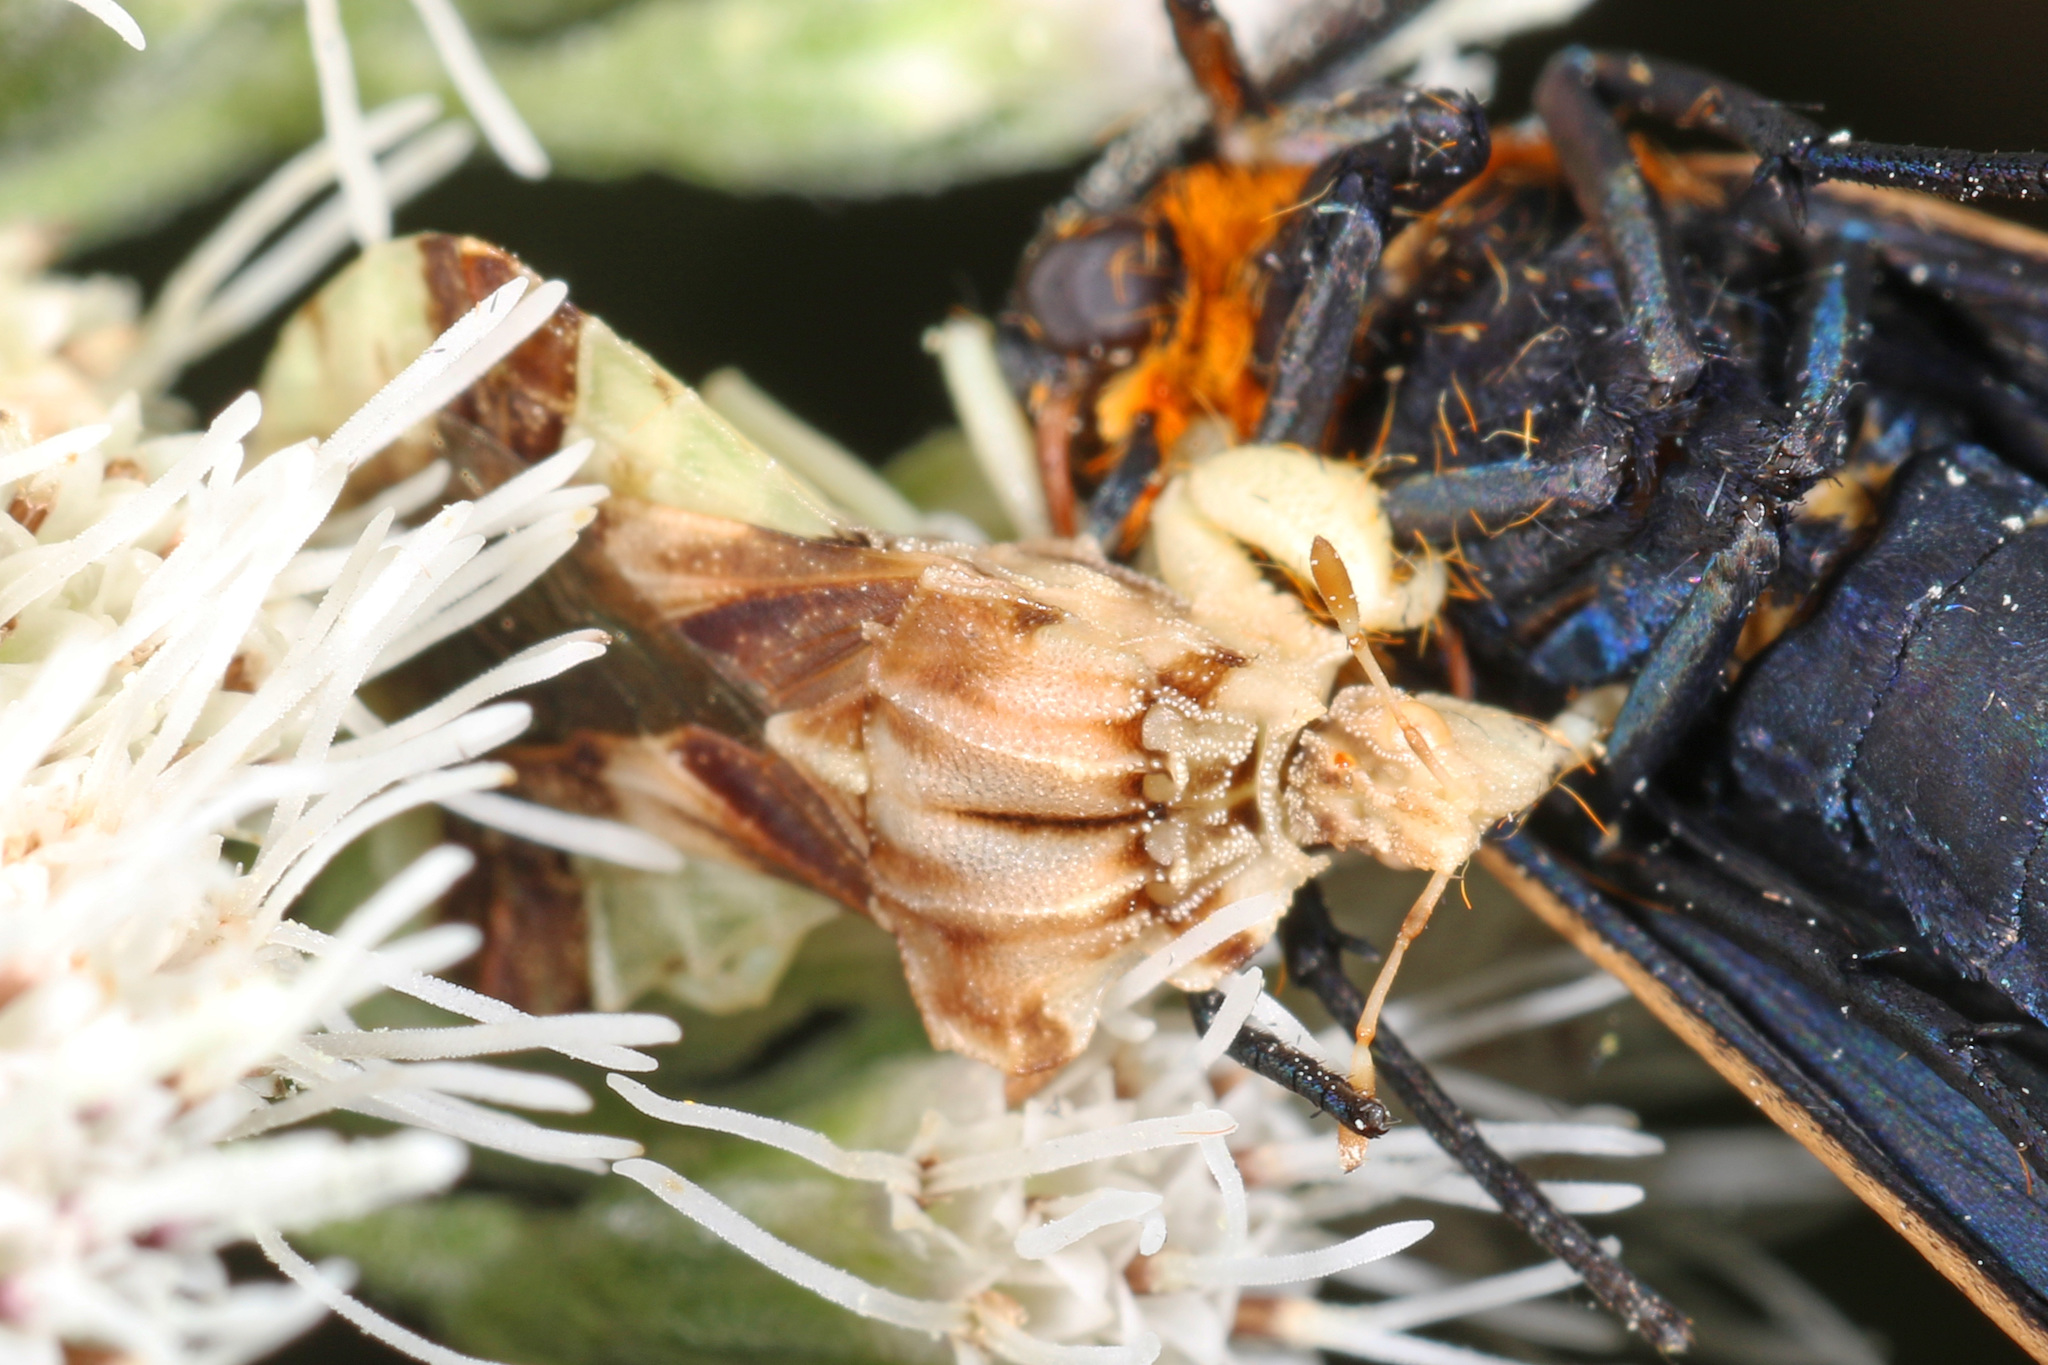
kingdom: Animalia
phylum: Arthropoda
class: Insecta
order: Hemiptera
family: Reduviidae
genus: Phymata
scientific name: Phymata fasciata
